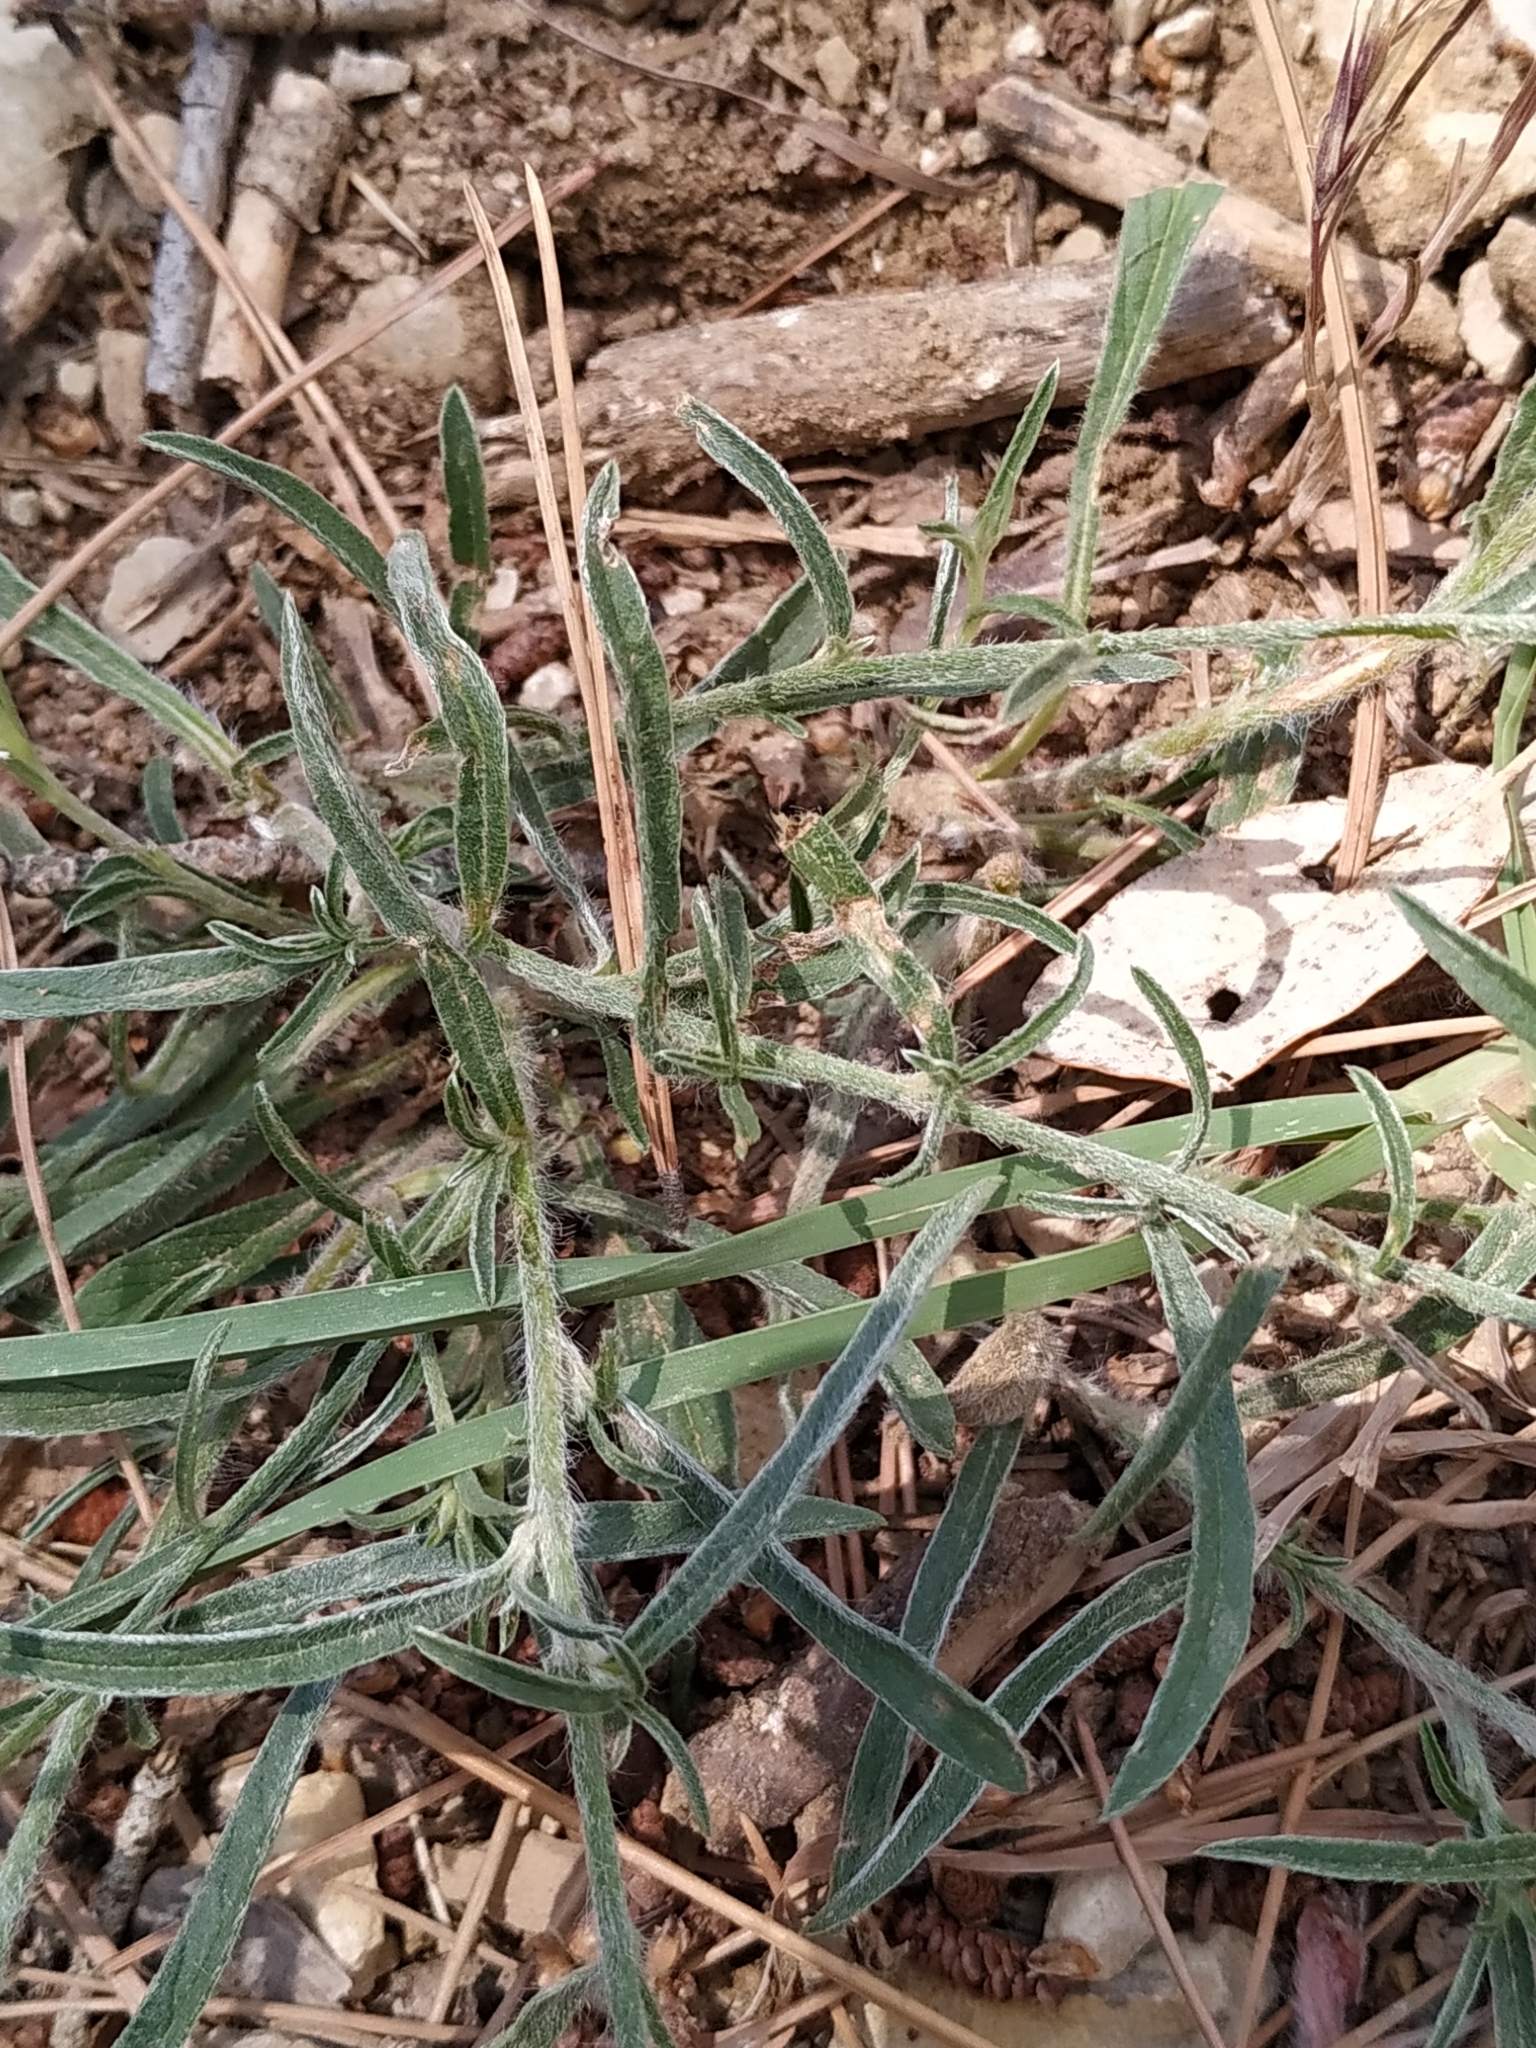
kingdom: Plantae
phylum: Tracheophyta
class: Magnoliopsida
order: Solanales
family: Convolvulaceae
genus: Convolvulus
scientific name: Convolvulus cantabrica
